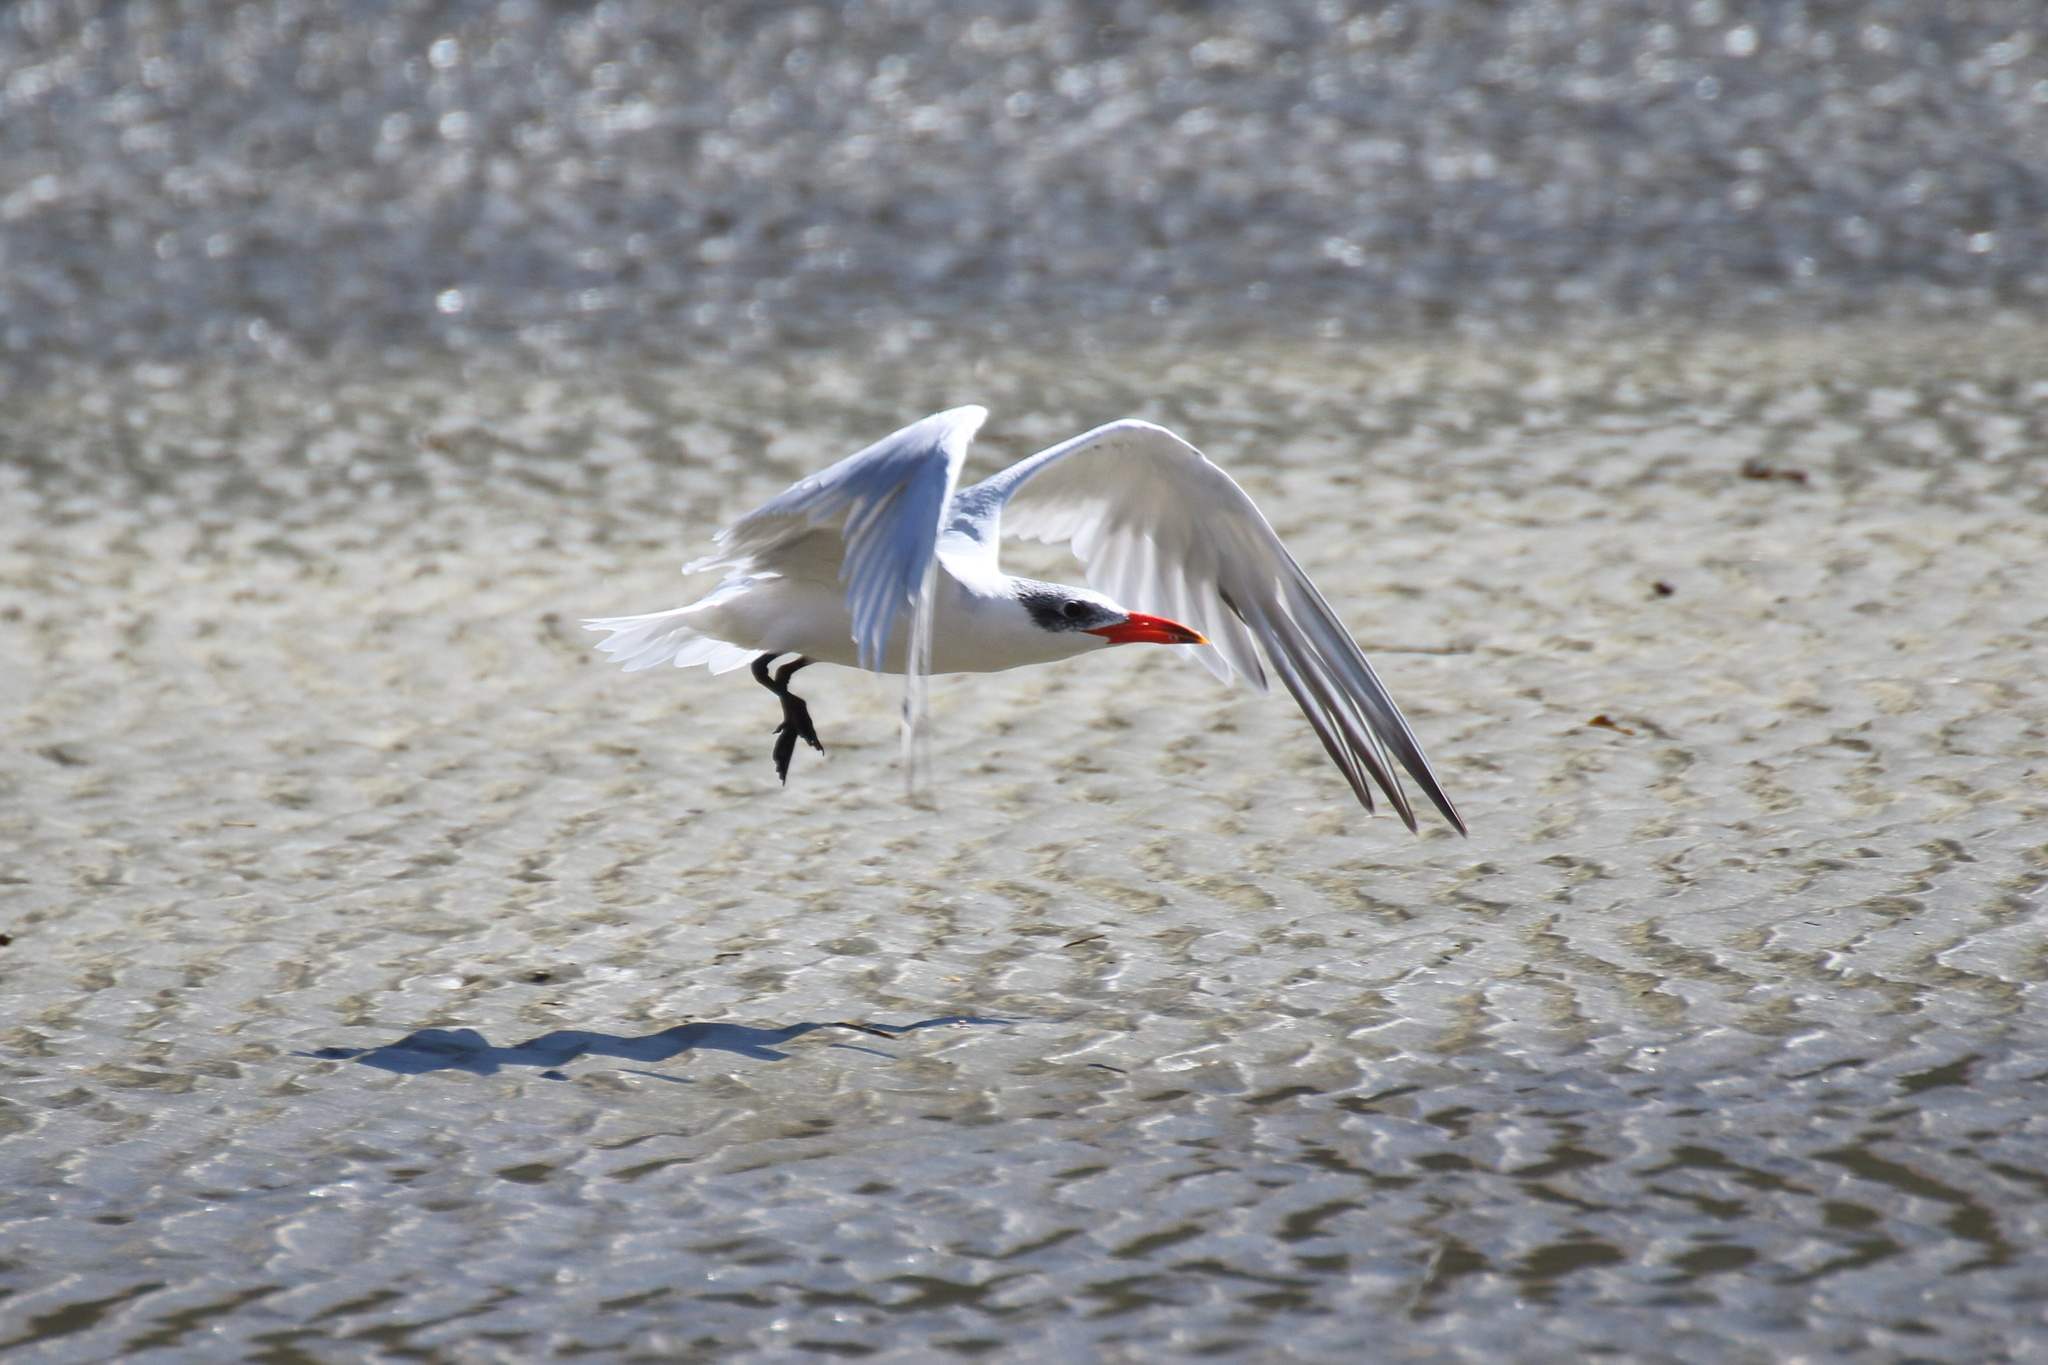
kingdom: Animalia
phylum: Chordata
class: Aves
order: Charadriiformes
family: Laridae
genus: Hydroprogne
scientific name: Hydroprogne caspia
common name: Caspian tern
